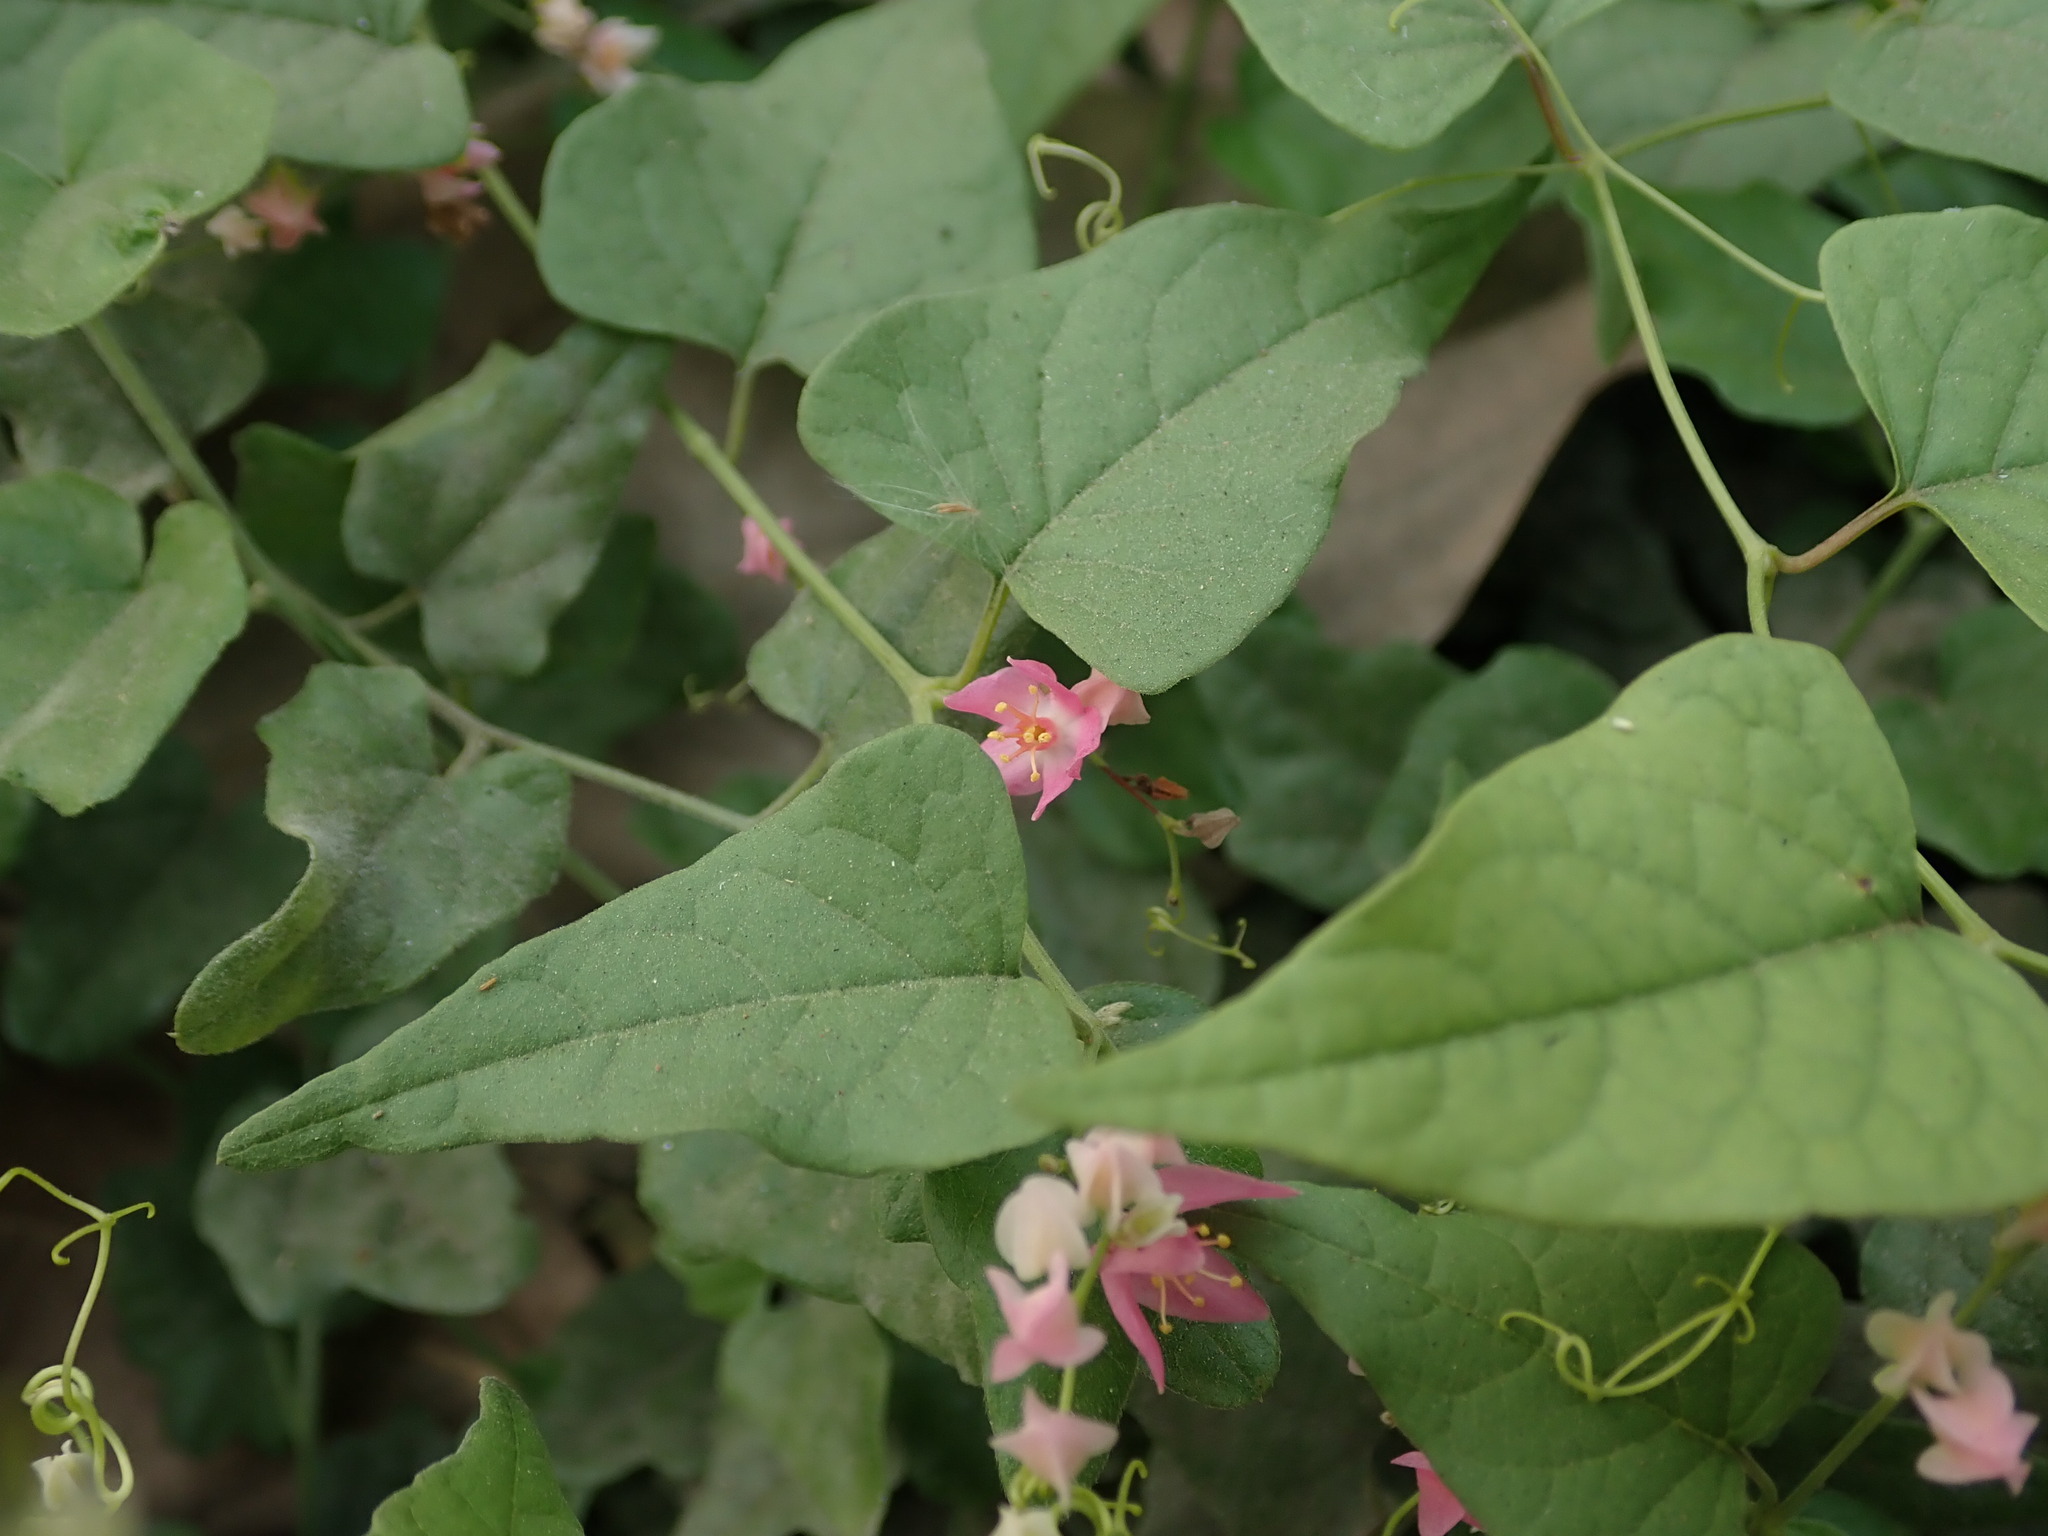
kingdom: Plantae
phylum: Tracheophyta
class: Magnoliopsida
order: Caryophyllales
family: Polygonaceae
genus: Antigonon
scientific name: Antigonon leptopus
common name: Coral vine
